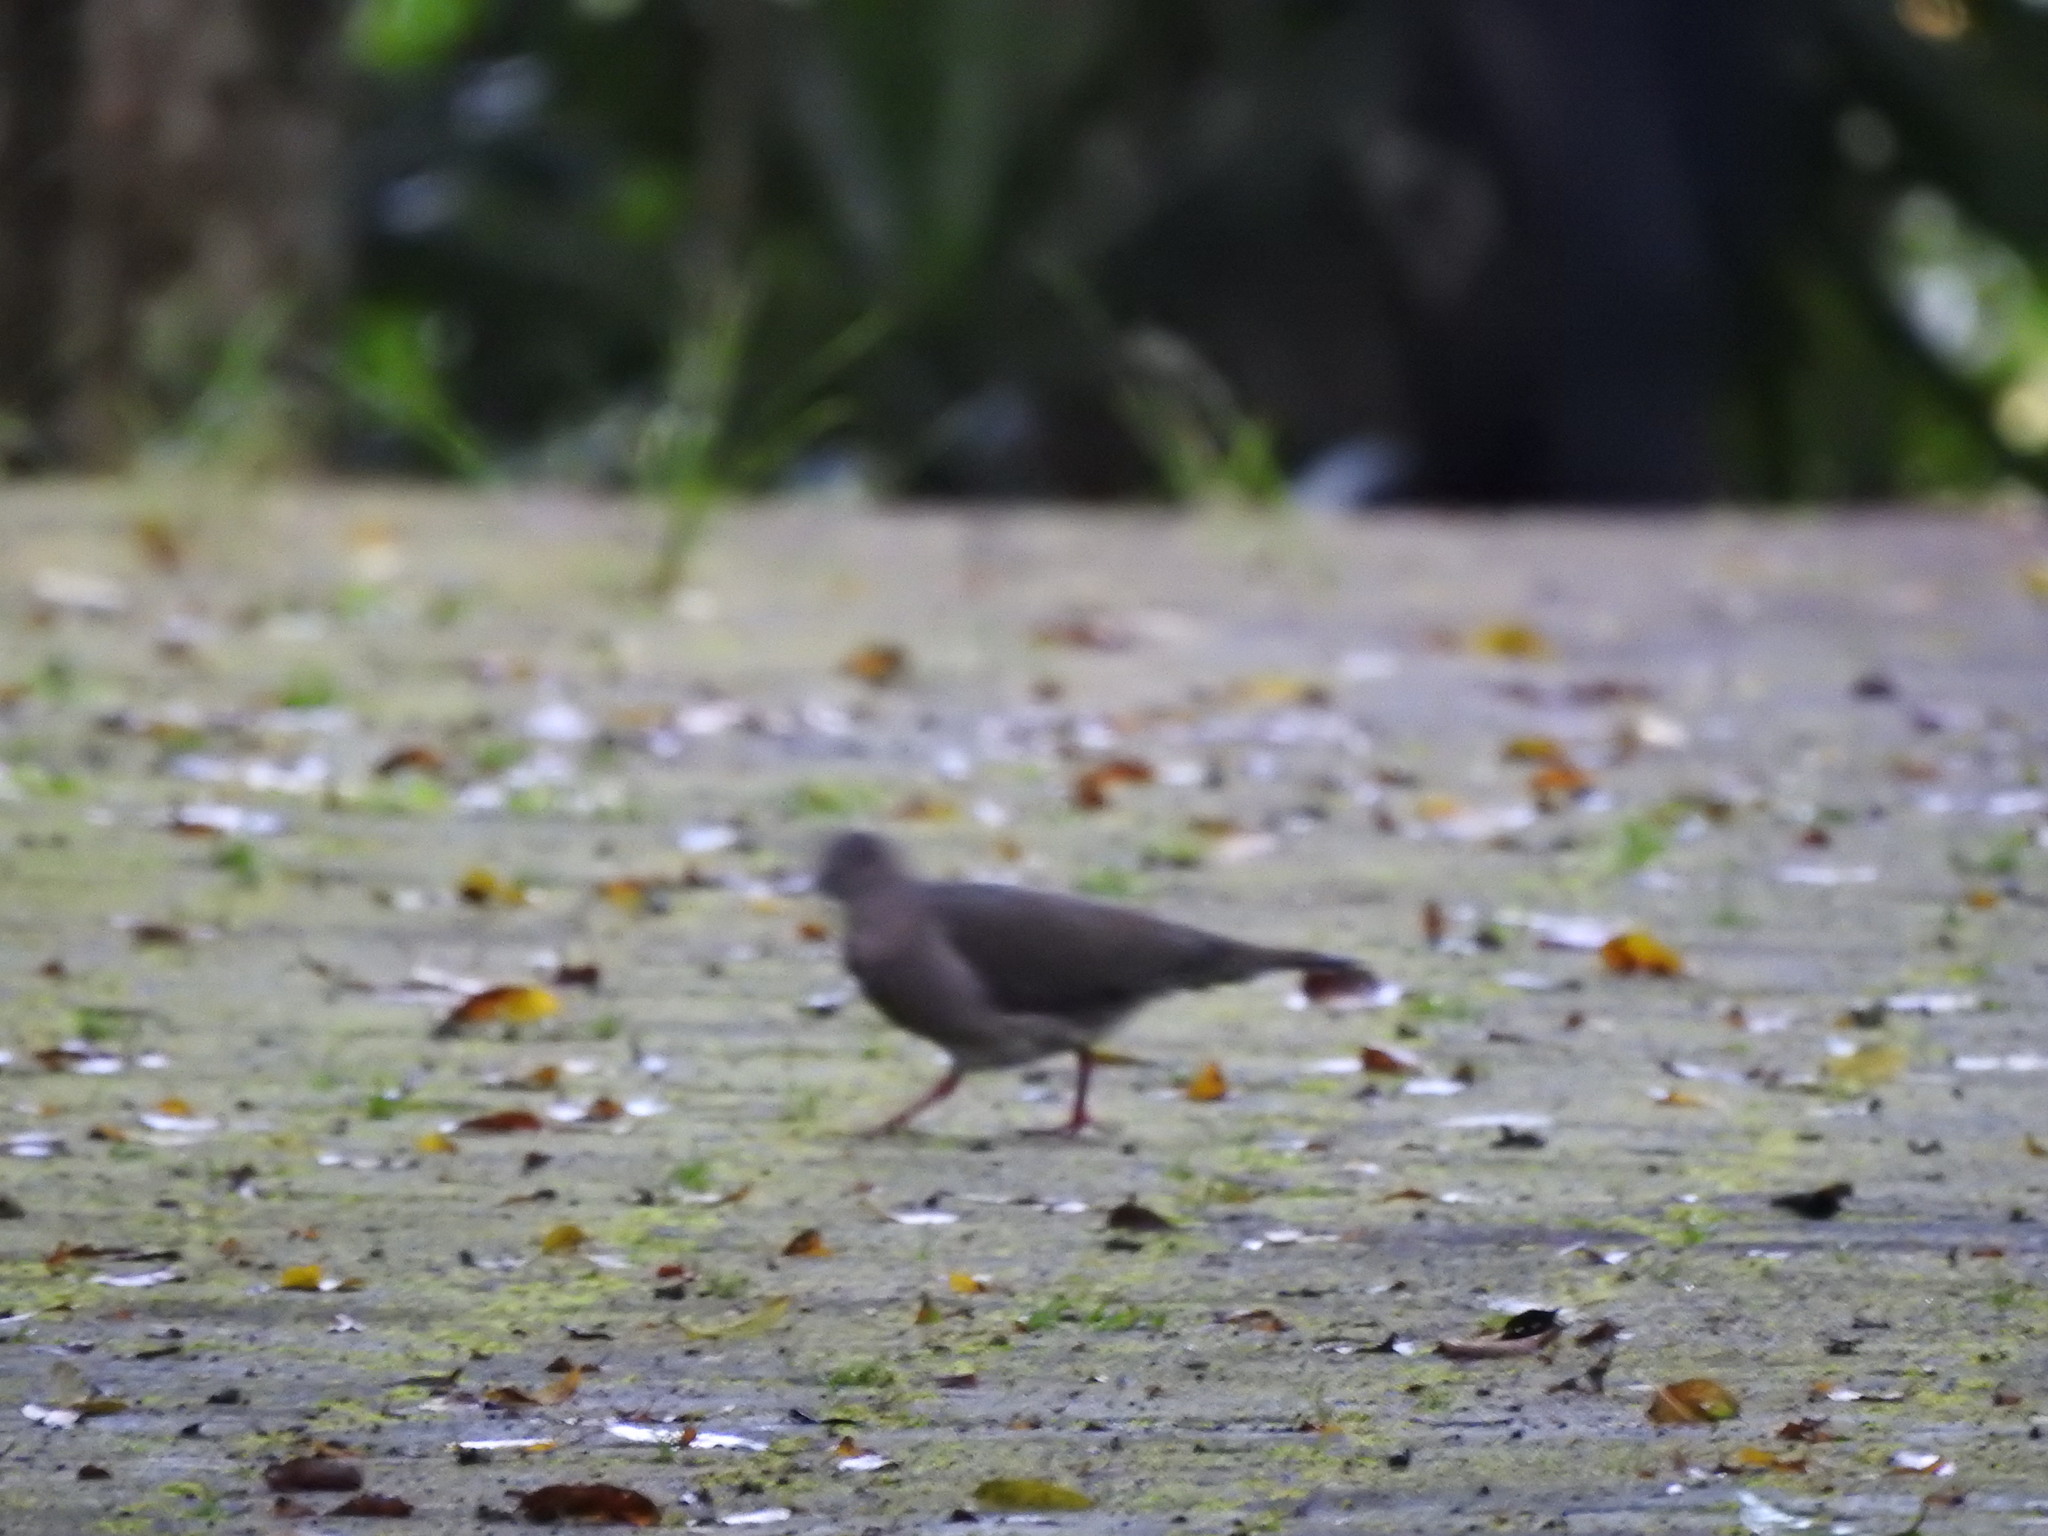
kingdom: Animalia
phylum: Chordata
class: Aves
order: Columbiformes
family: Columbidae
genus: Leptotila
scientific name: Leptotila verreauxi
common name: White-tipped dove
